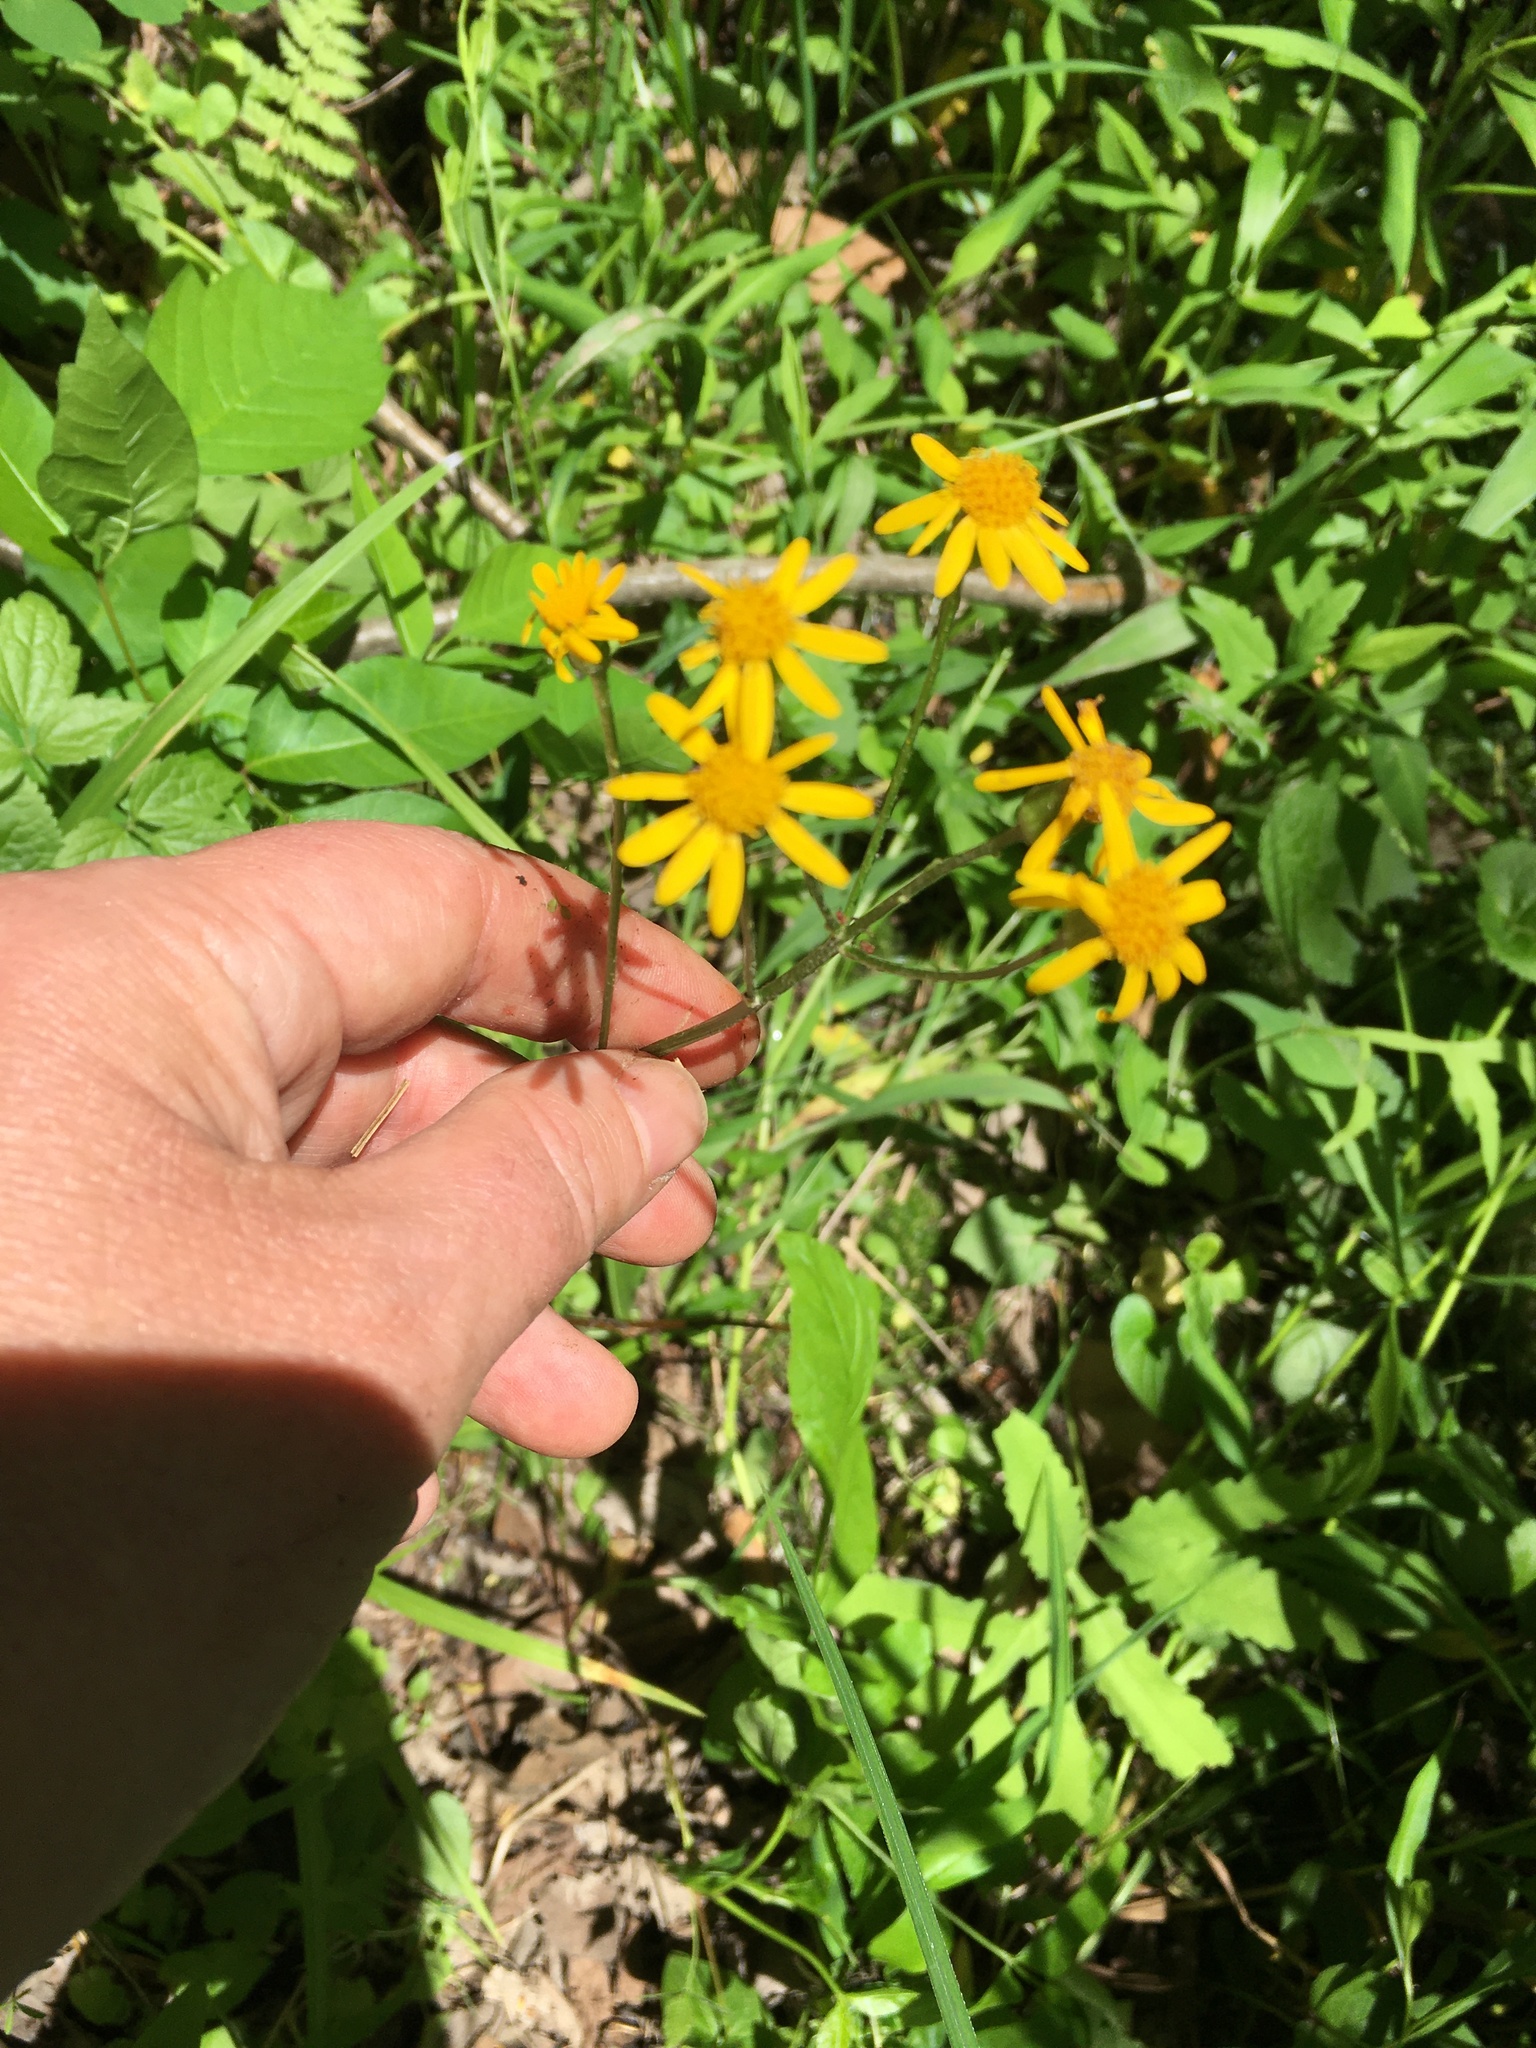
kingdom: Plantae
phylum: Tracheophyta
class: Magnoliopsida
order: Asterales
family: Asteraceae
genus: Packera
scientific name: Packera aurea
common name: Golden groundsel
